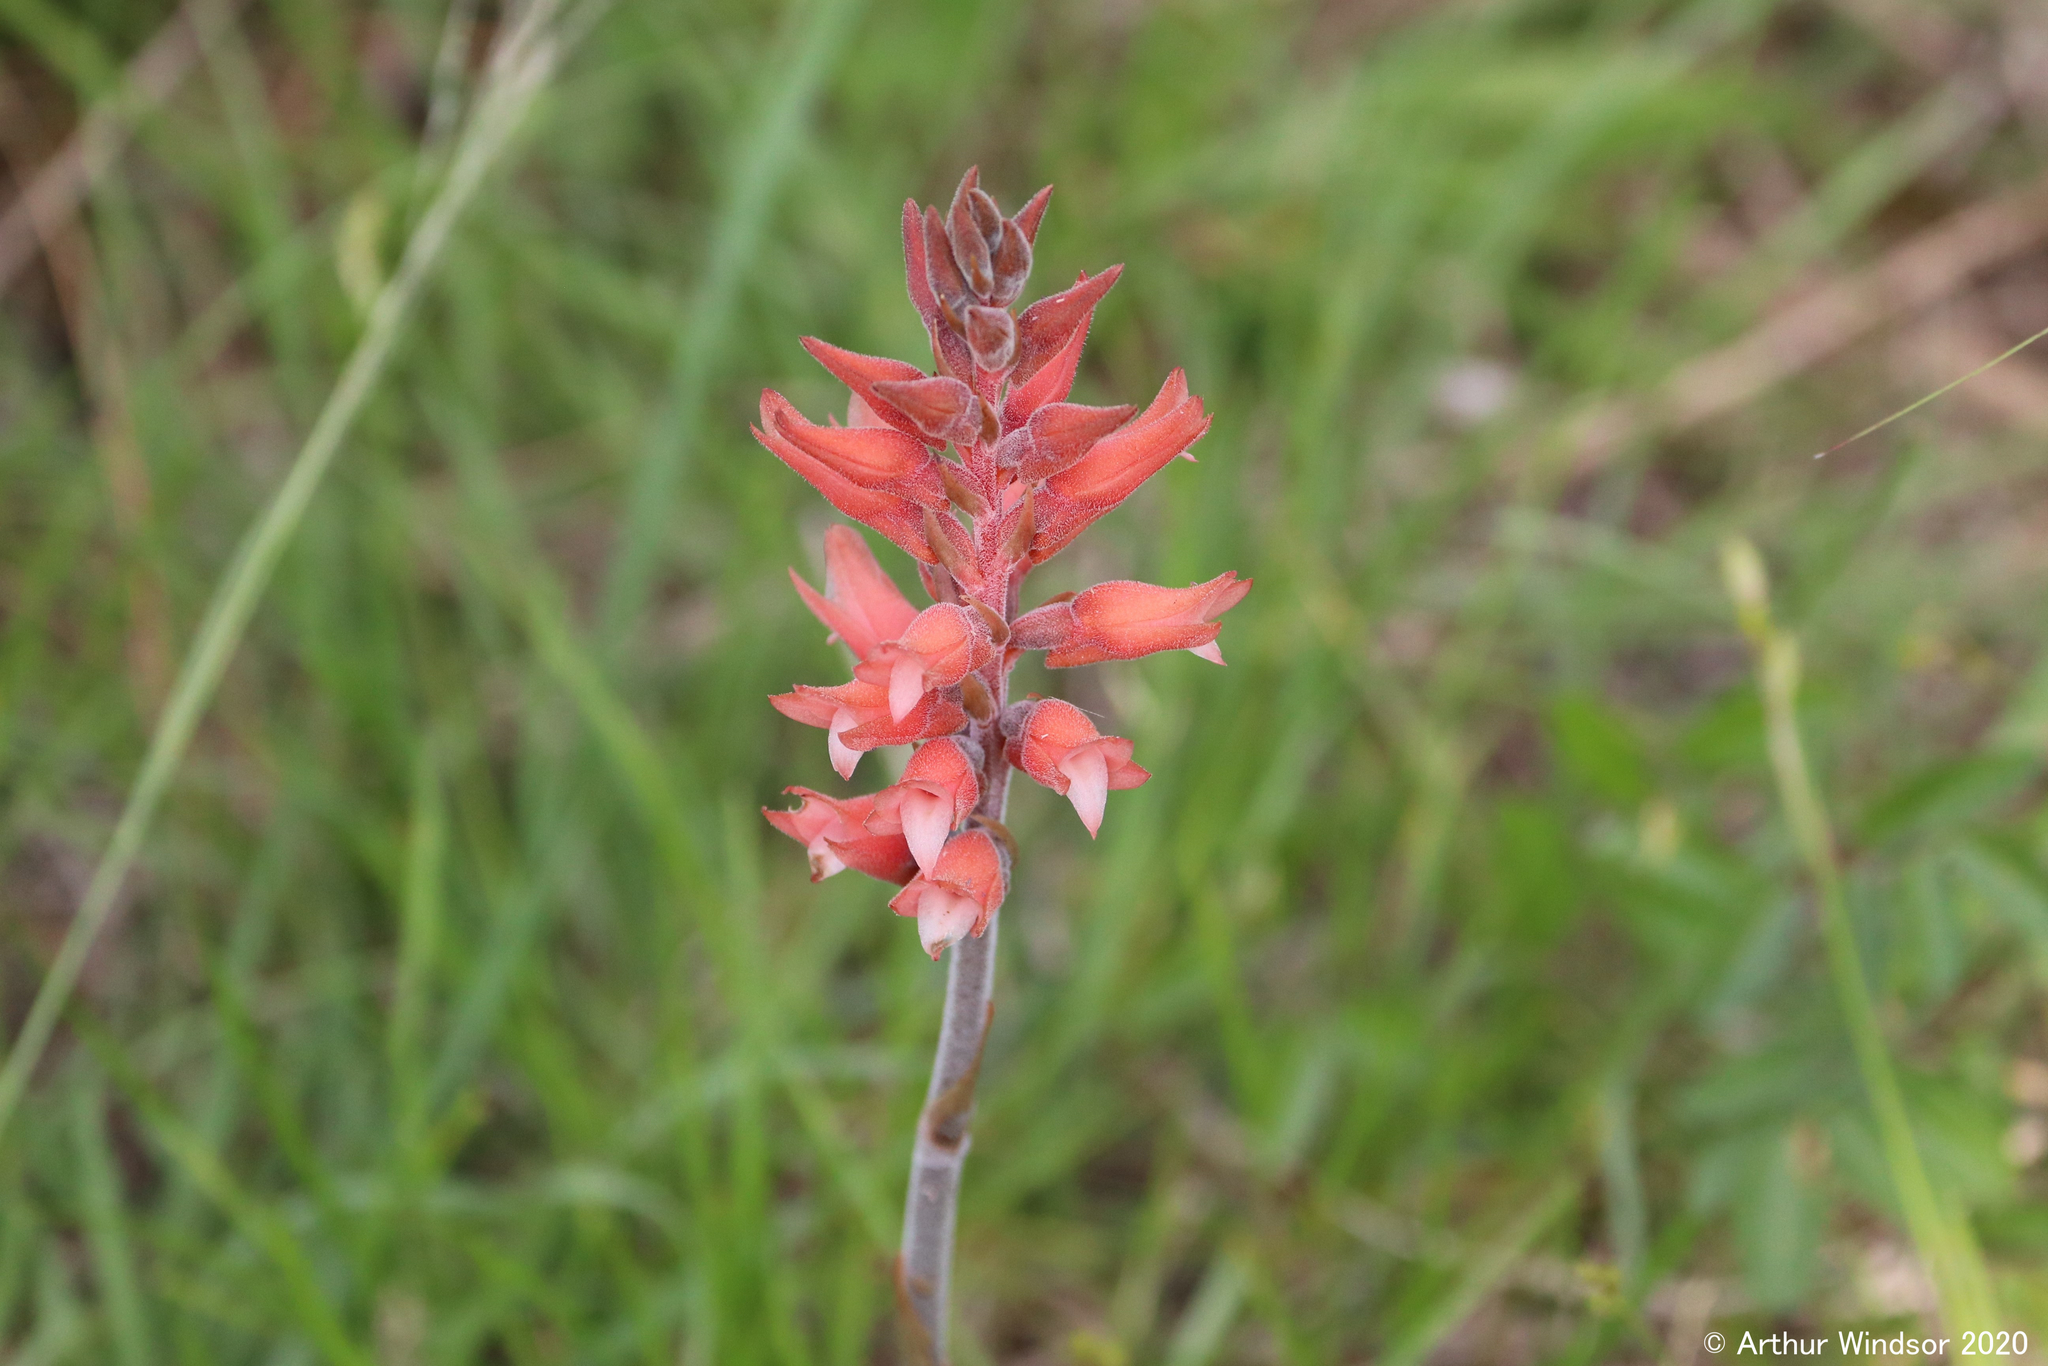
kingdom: Plantae
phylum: Tracheophyta
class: Liliopsida
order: Asparagales
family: Orchidaceae
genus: Sacoila
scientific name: Sacoila lanceolata
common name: Leafless beaked ladiestresses
